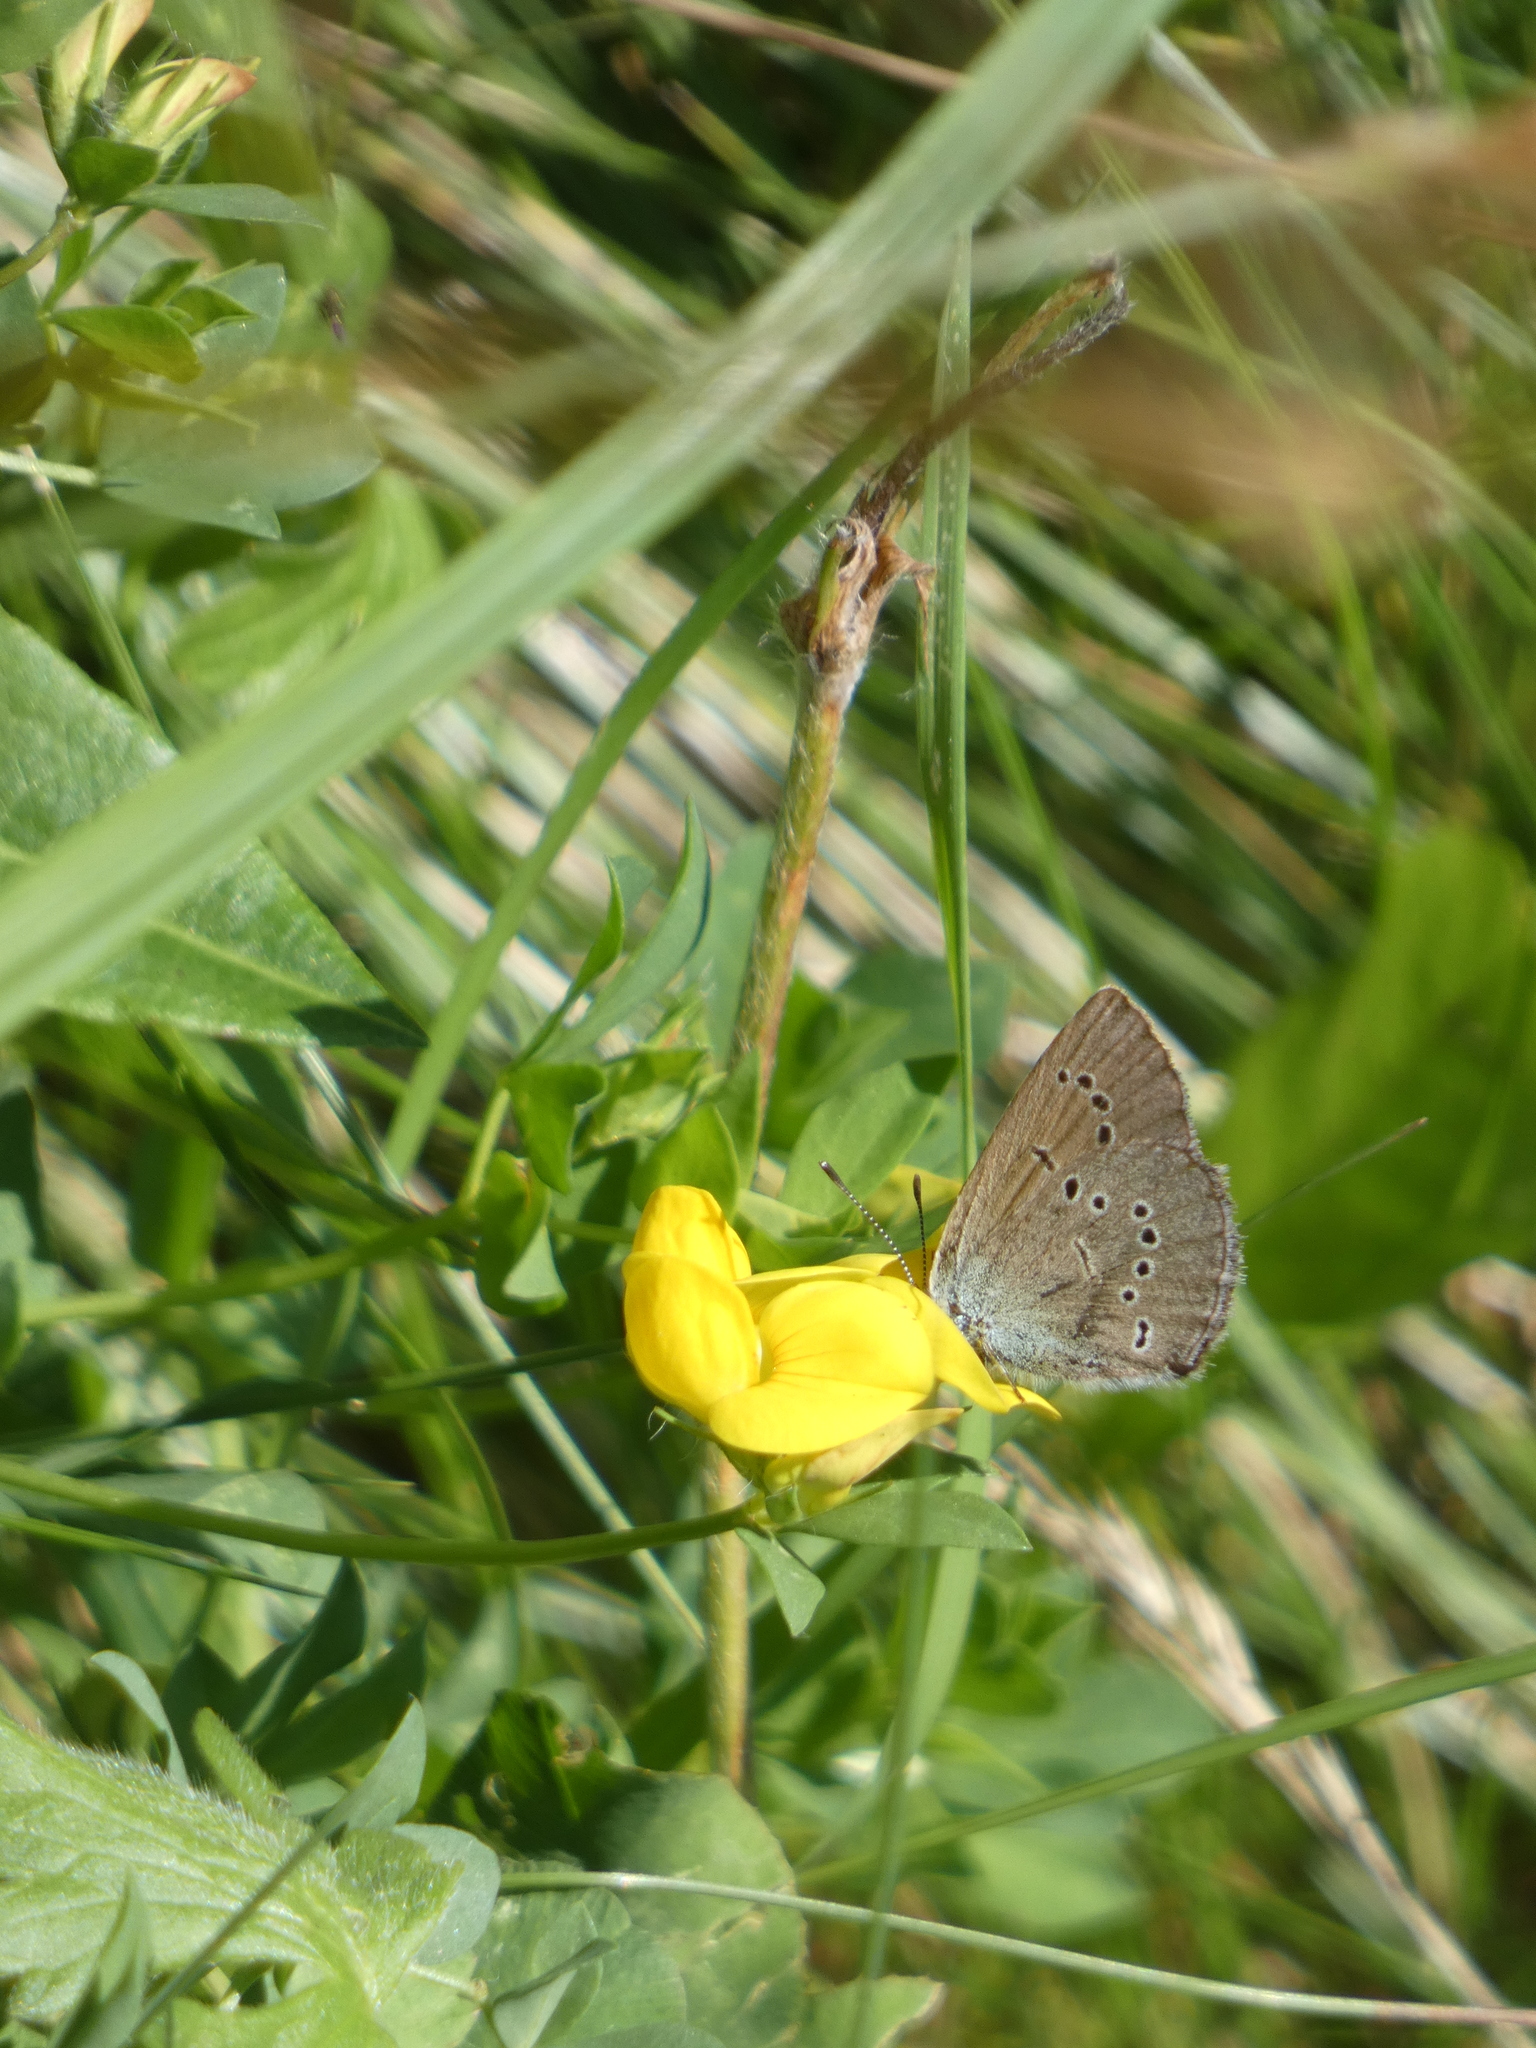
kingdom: Animalia
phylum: Arthropoda
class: Insecta
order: Lepidoptera
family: Lycaenidae
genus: Cyaniris
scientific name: Cyaniris semiargus
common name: Mazarine blue
